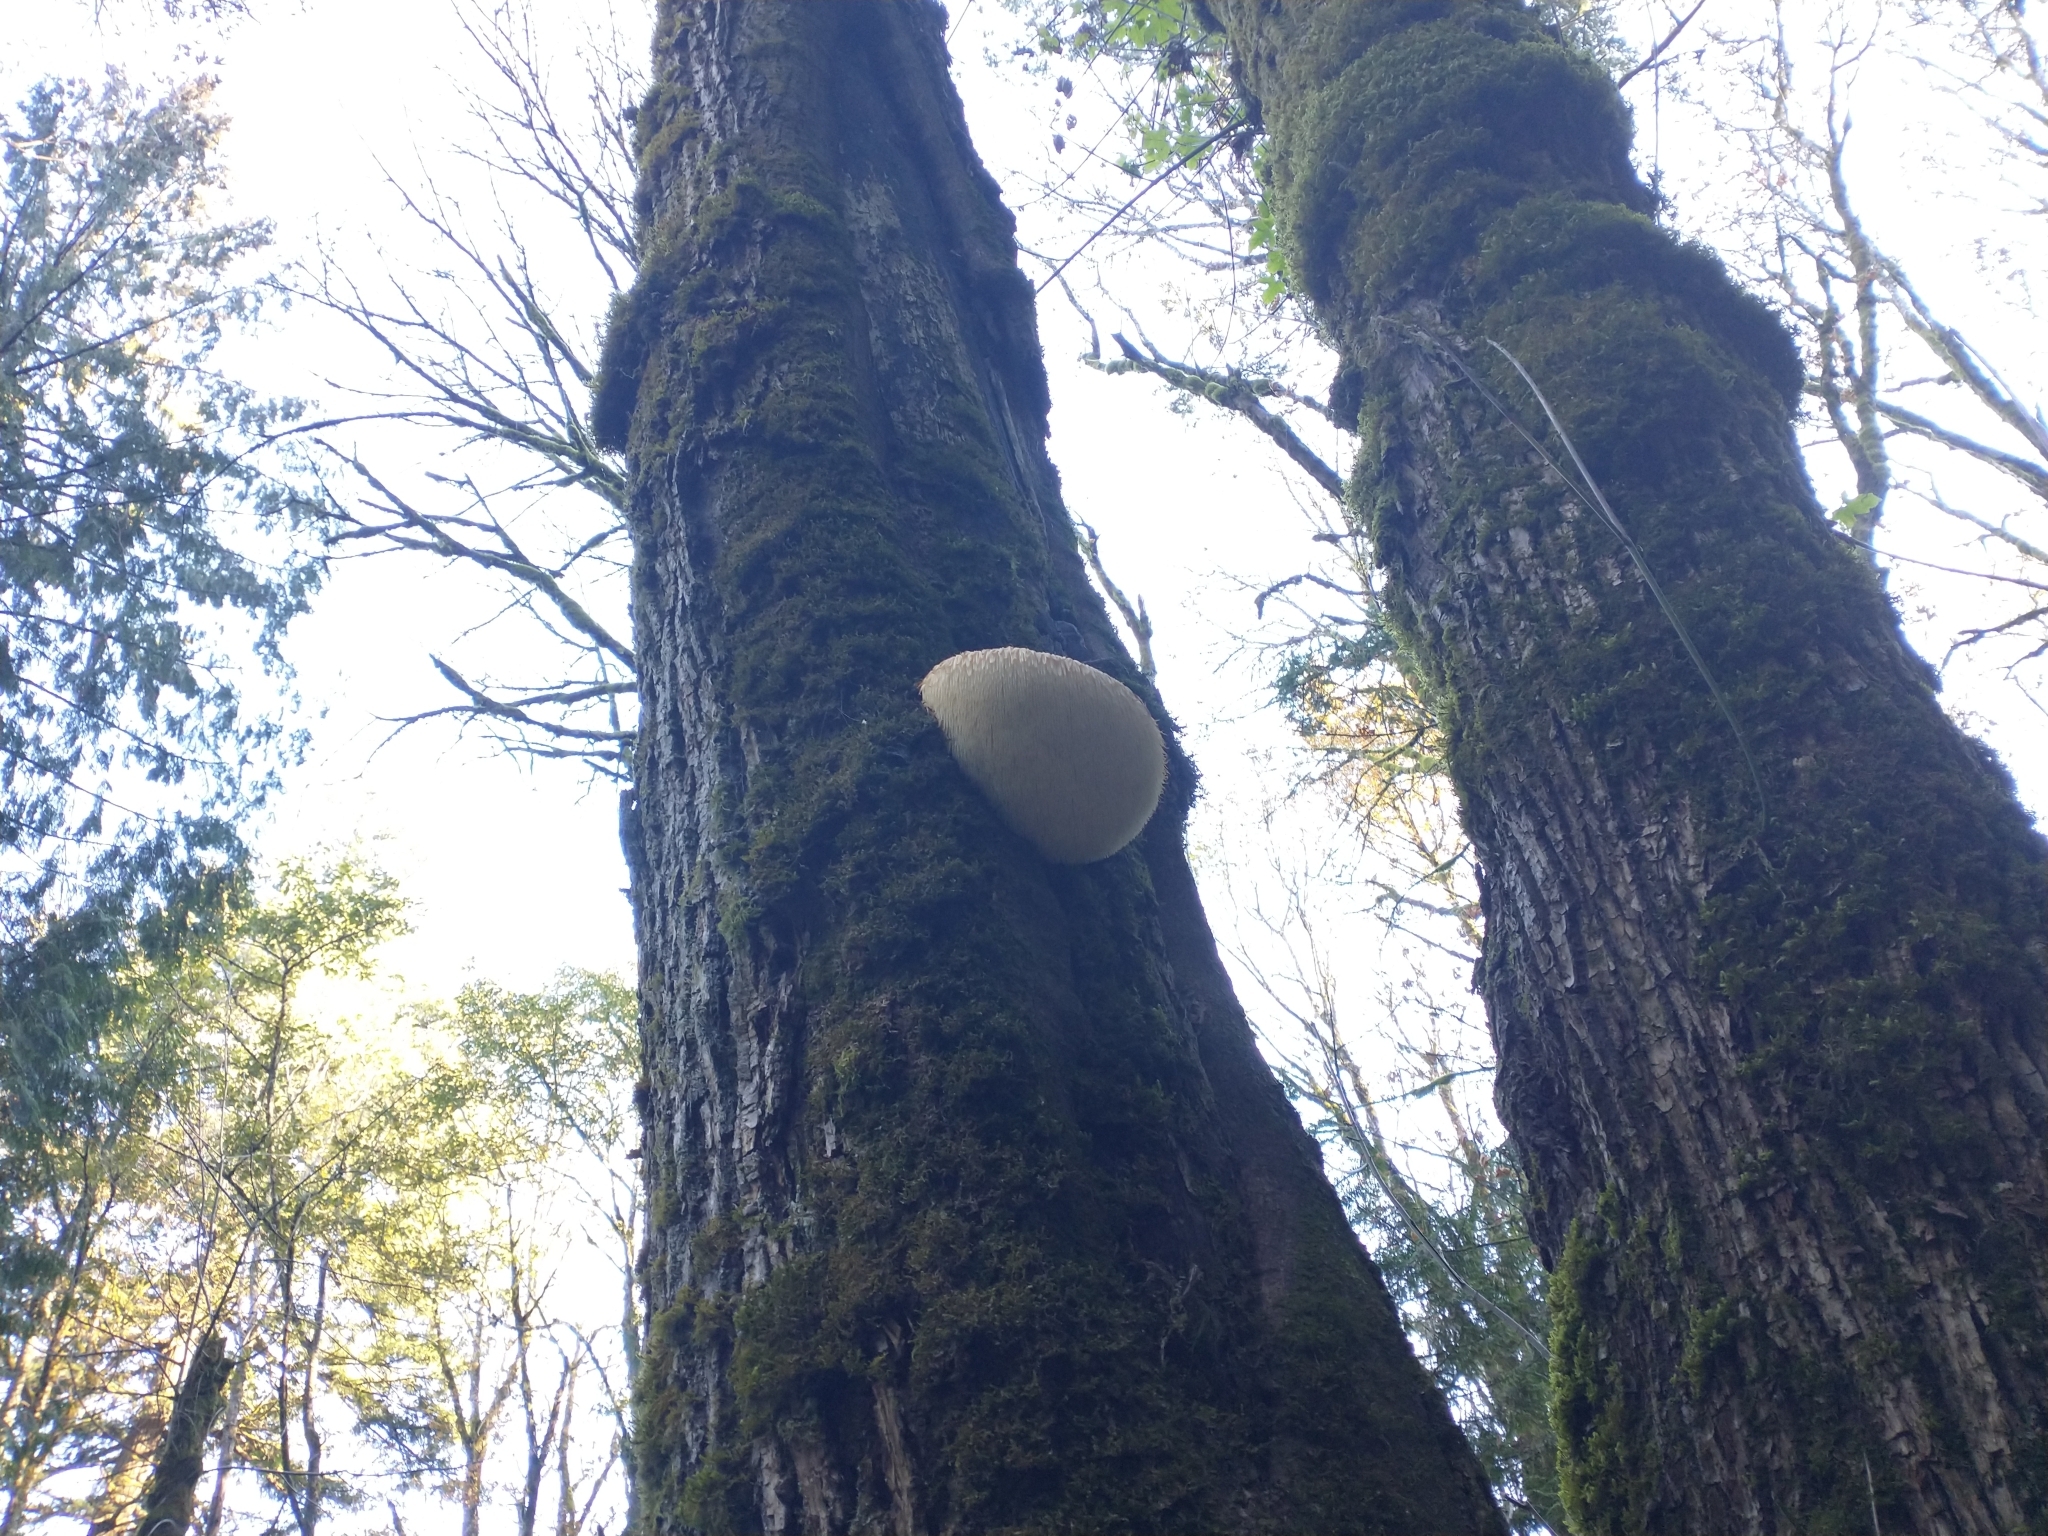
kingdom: Plantae
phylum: Tracheophyta
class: Magnoliopsida
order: Sapindales
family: Sapindaceae
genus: Acer
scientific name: Acer macrophyllum
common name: Oregon maple
